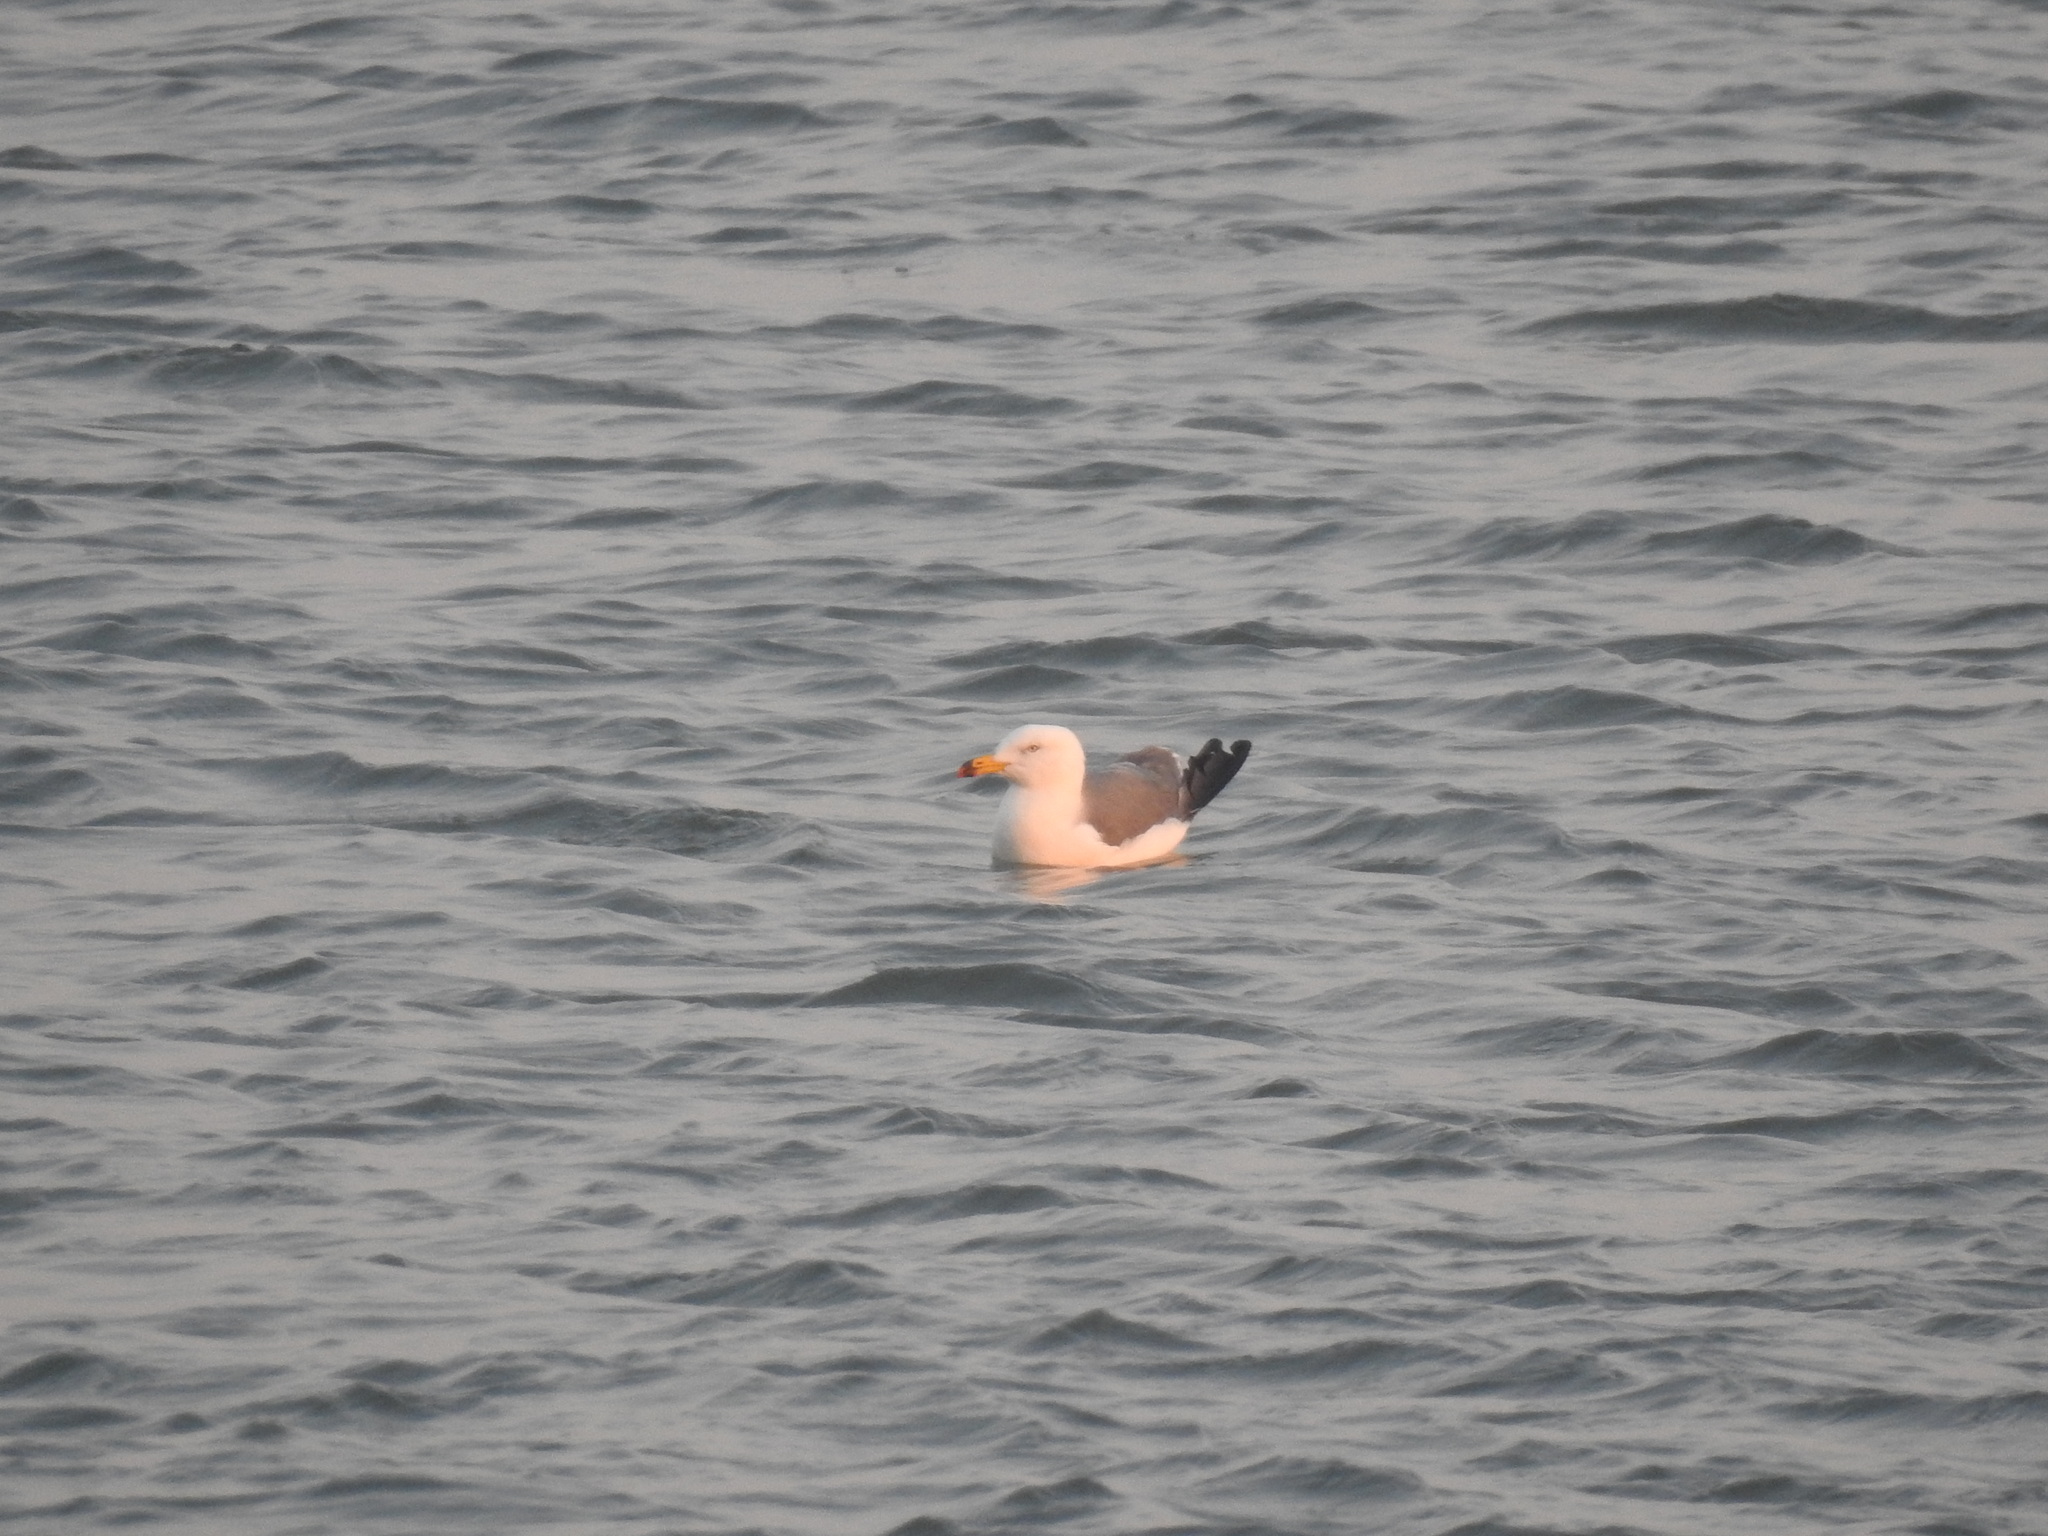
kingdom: Animalia
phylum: Chordata
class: Aves
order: Charadriiformes
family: Laridae
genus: Larus
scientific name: Larus crassirostris
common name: Black-tailed gull
